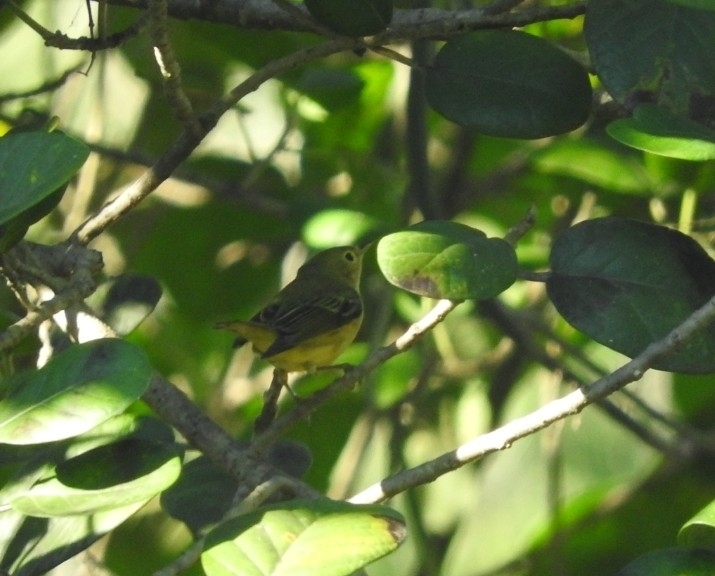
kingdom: Animalia
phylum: Chordata
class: Aves
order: Passeriformes
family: Parulidae
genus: Setophaga
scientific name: Setophaga petechia
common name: Yellow warbler
